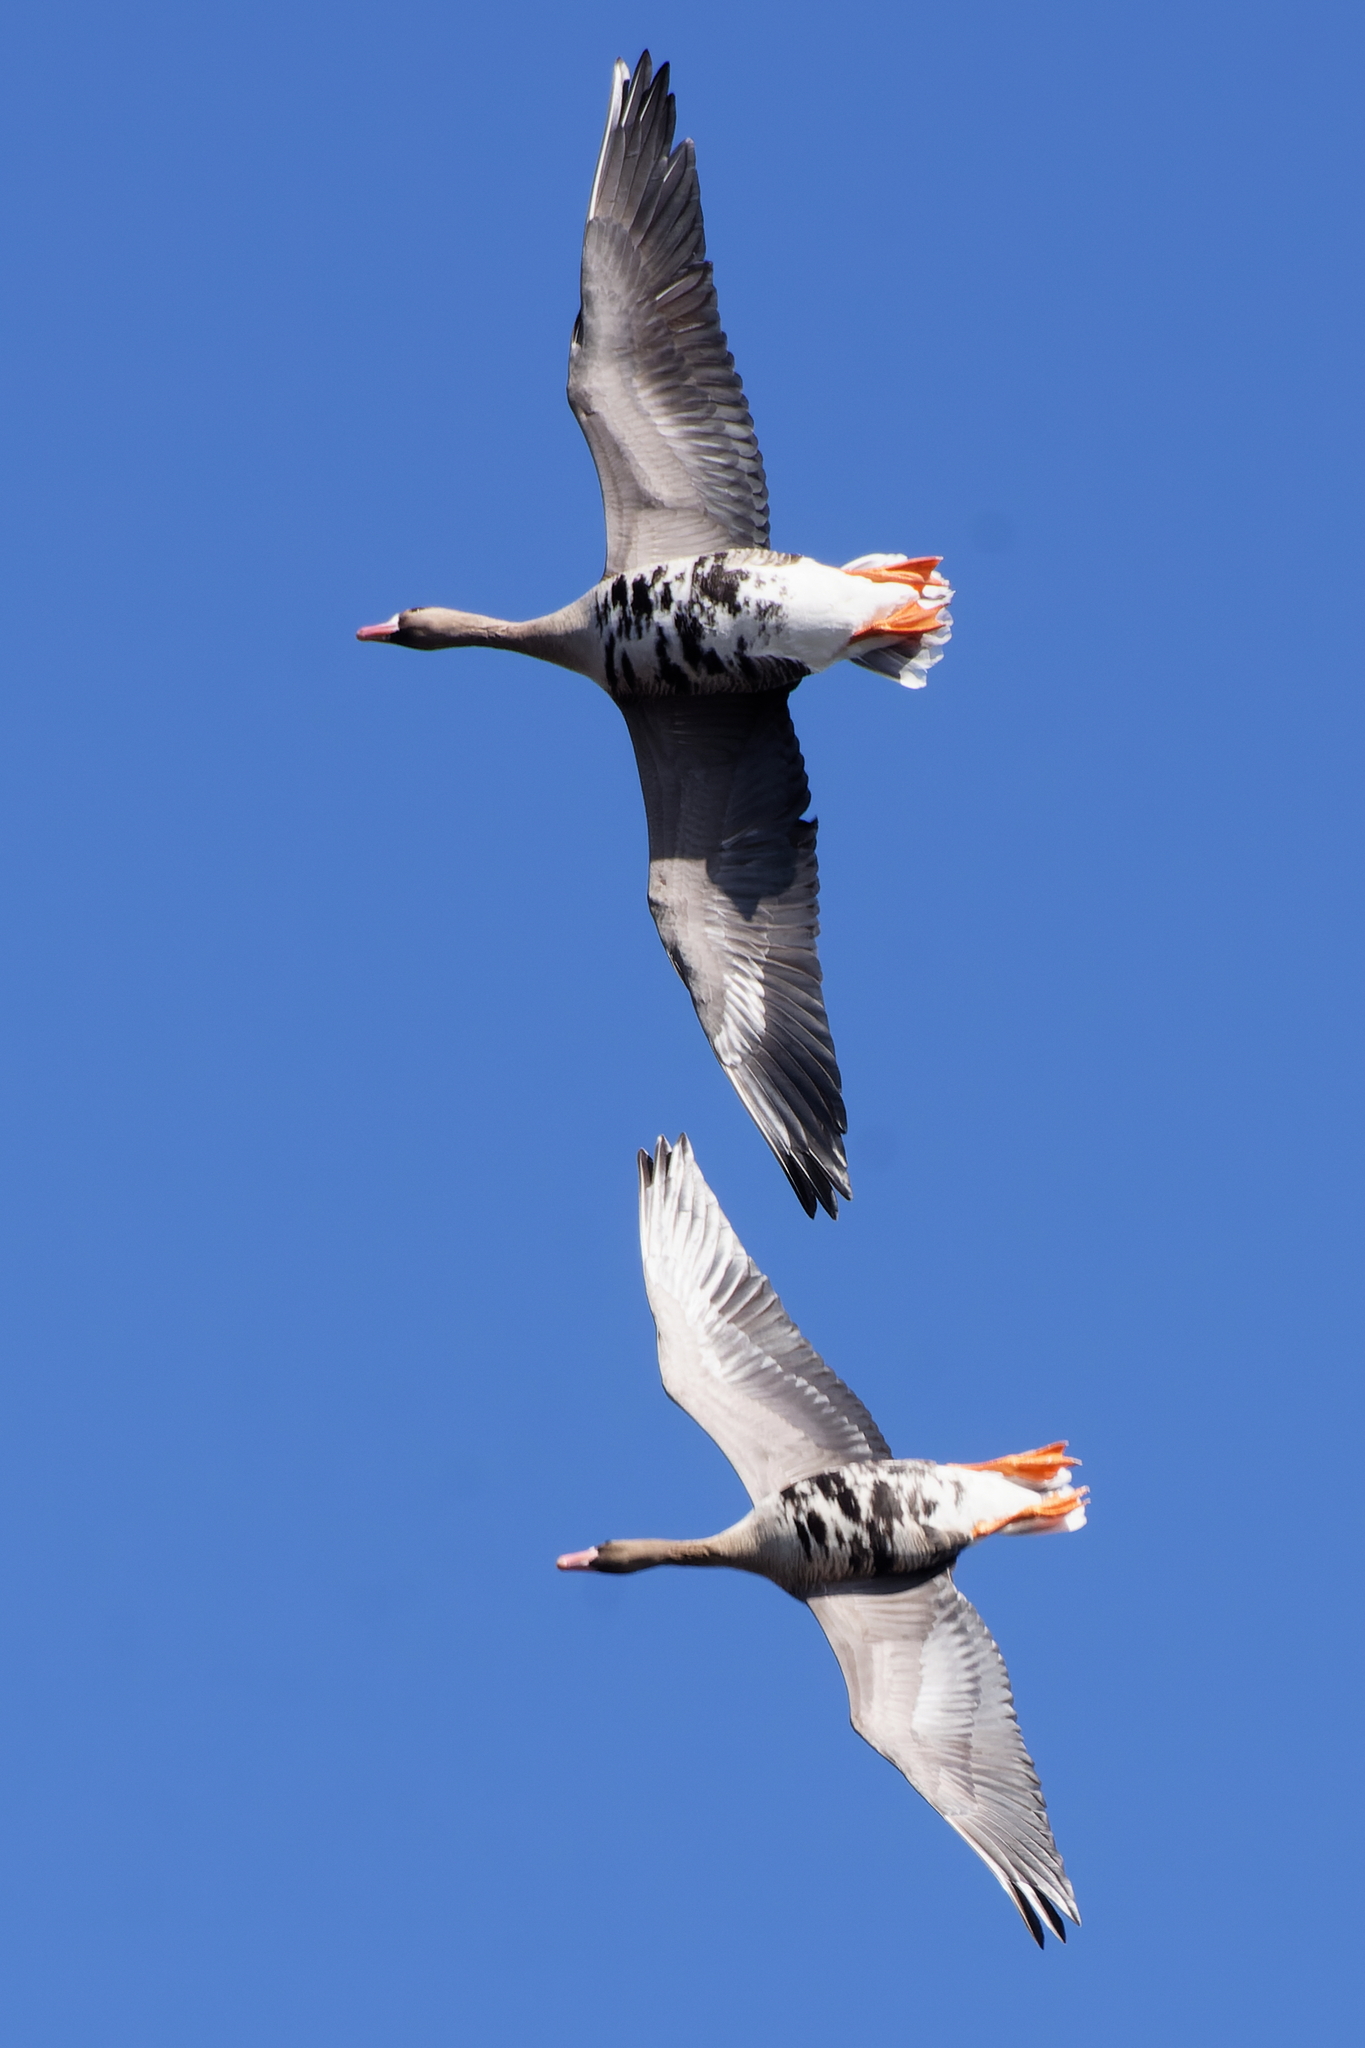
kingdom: Animalia
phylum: Chordata
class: Aves
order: Anseriformes
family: Anatidae
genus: Anser
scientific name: Anser albifrons
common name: Greater white-fronted goose
